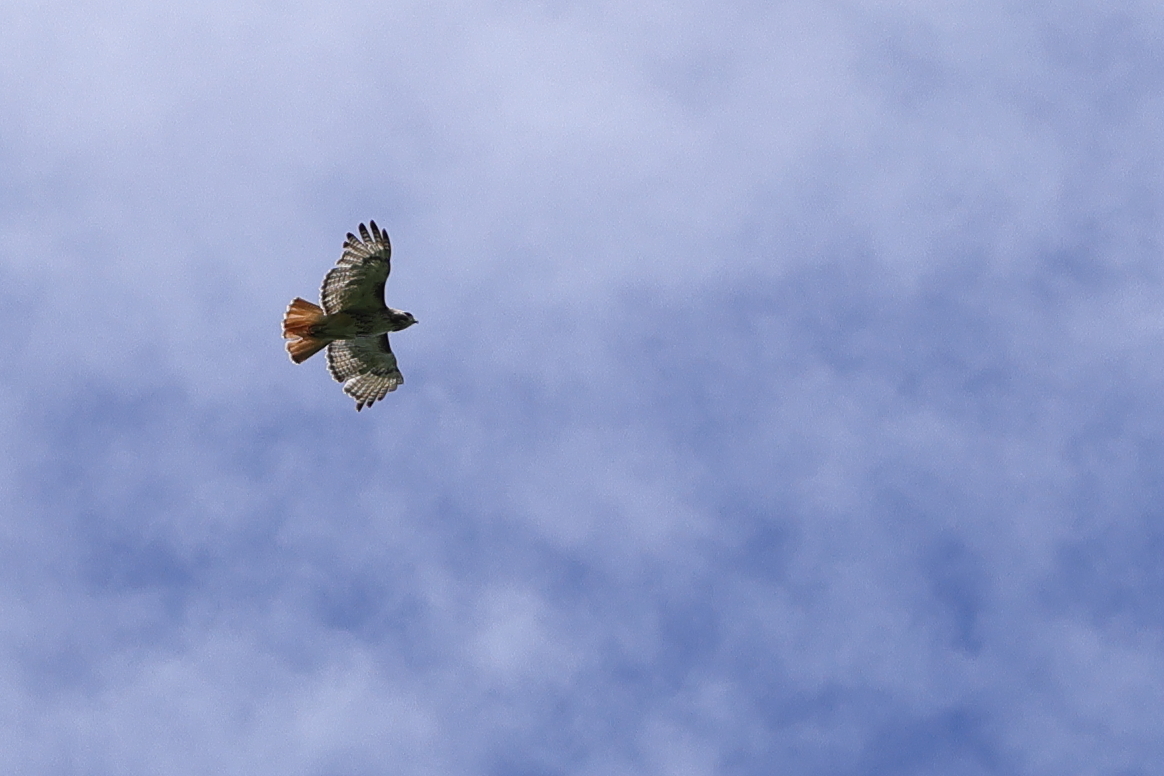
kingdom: Animalia
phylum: Chordata
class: Aves
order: Accipitriformes
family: Accipitridae
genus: Buteo
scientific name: Buteo jamaicensis
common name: Red-tailed hawk
